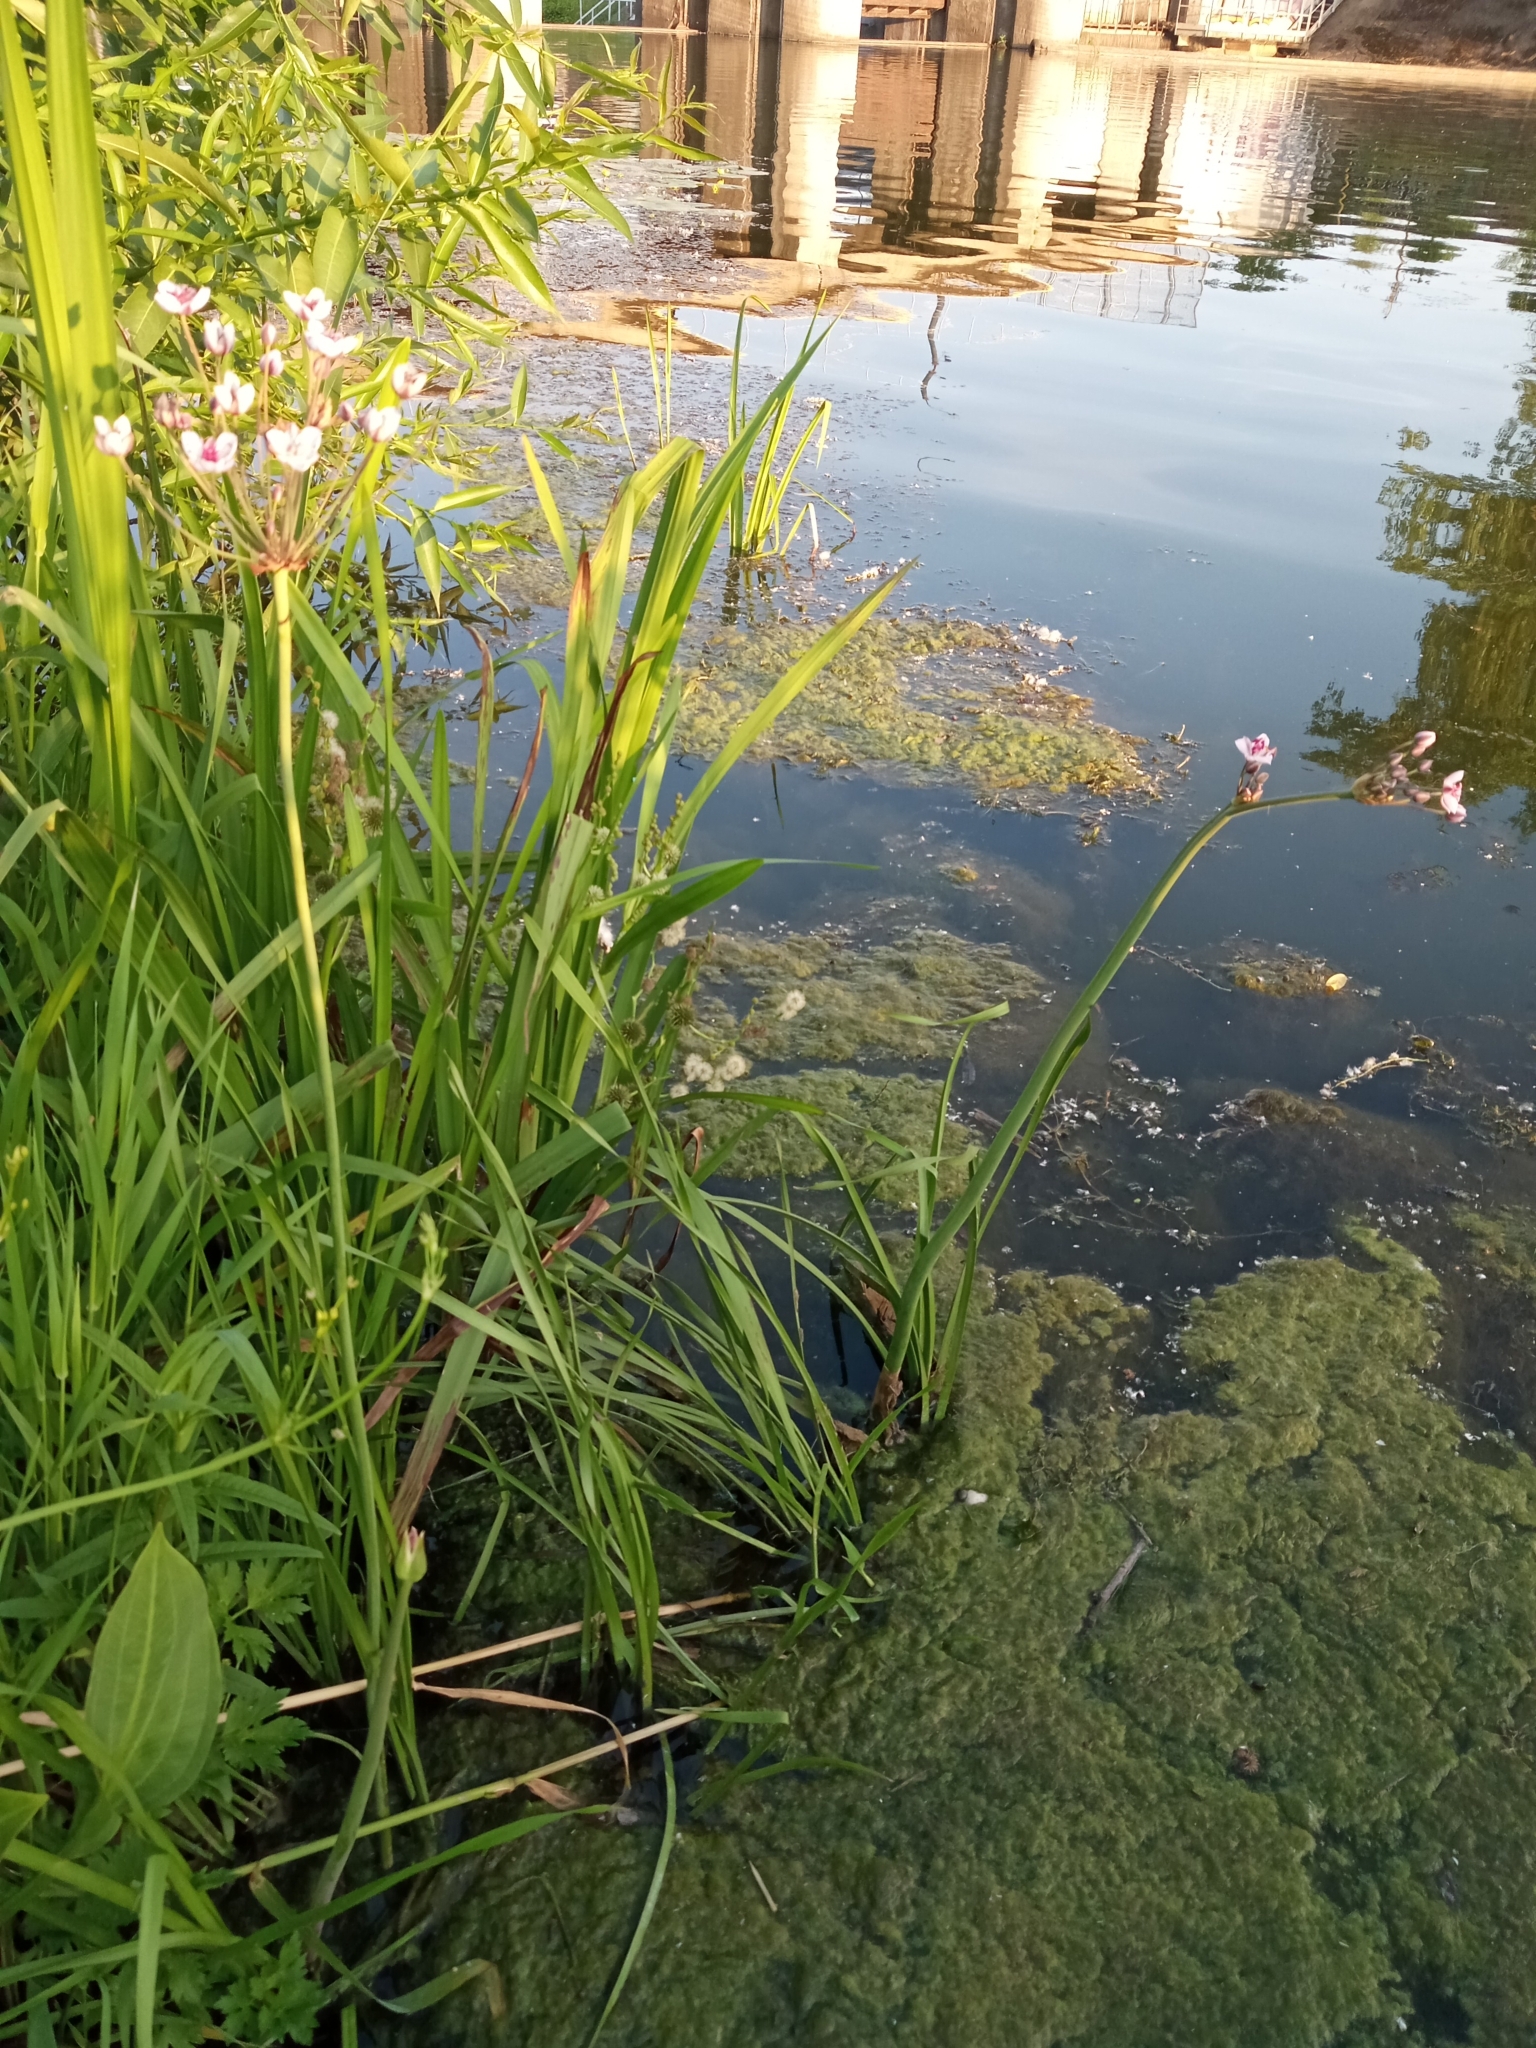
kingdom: Plantae
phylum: Tracheophyta
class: Liliopsida
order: Alismatales
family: Butomaceae
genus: Butomus
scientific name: Butomus umbellatus
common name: Flowering-rush
